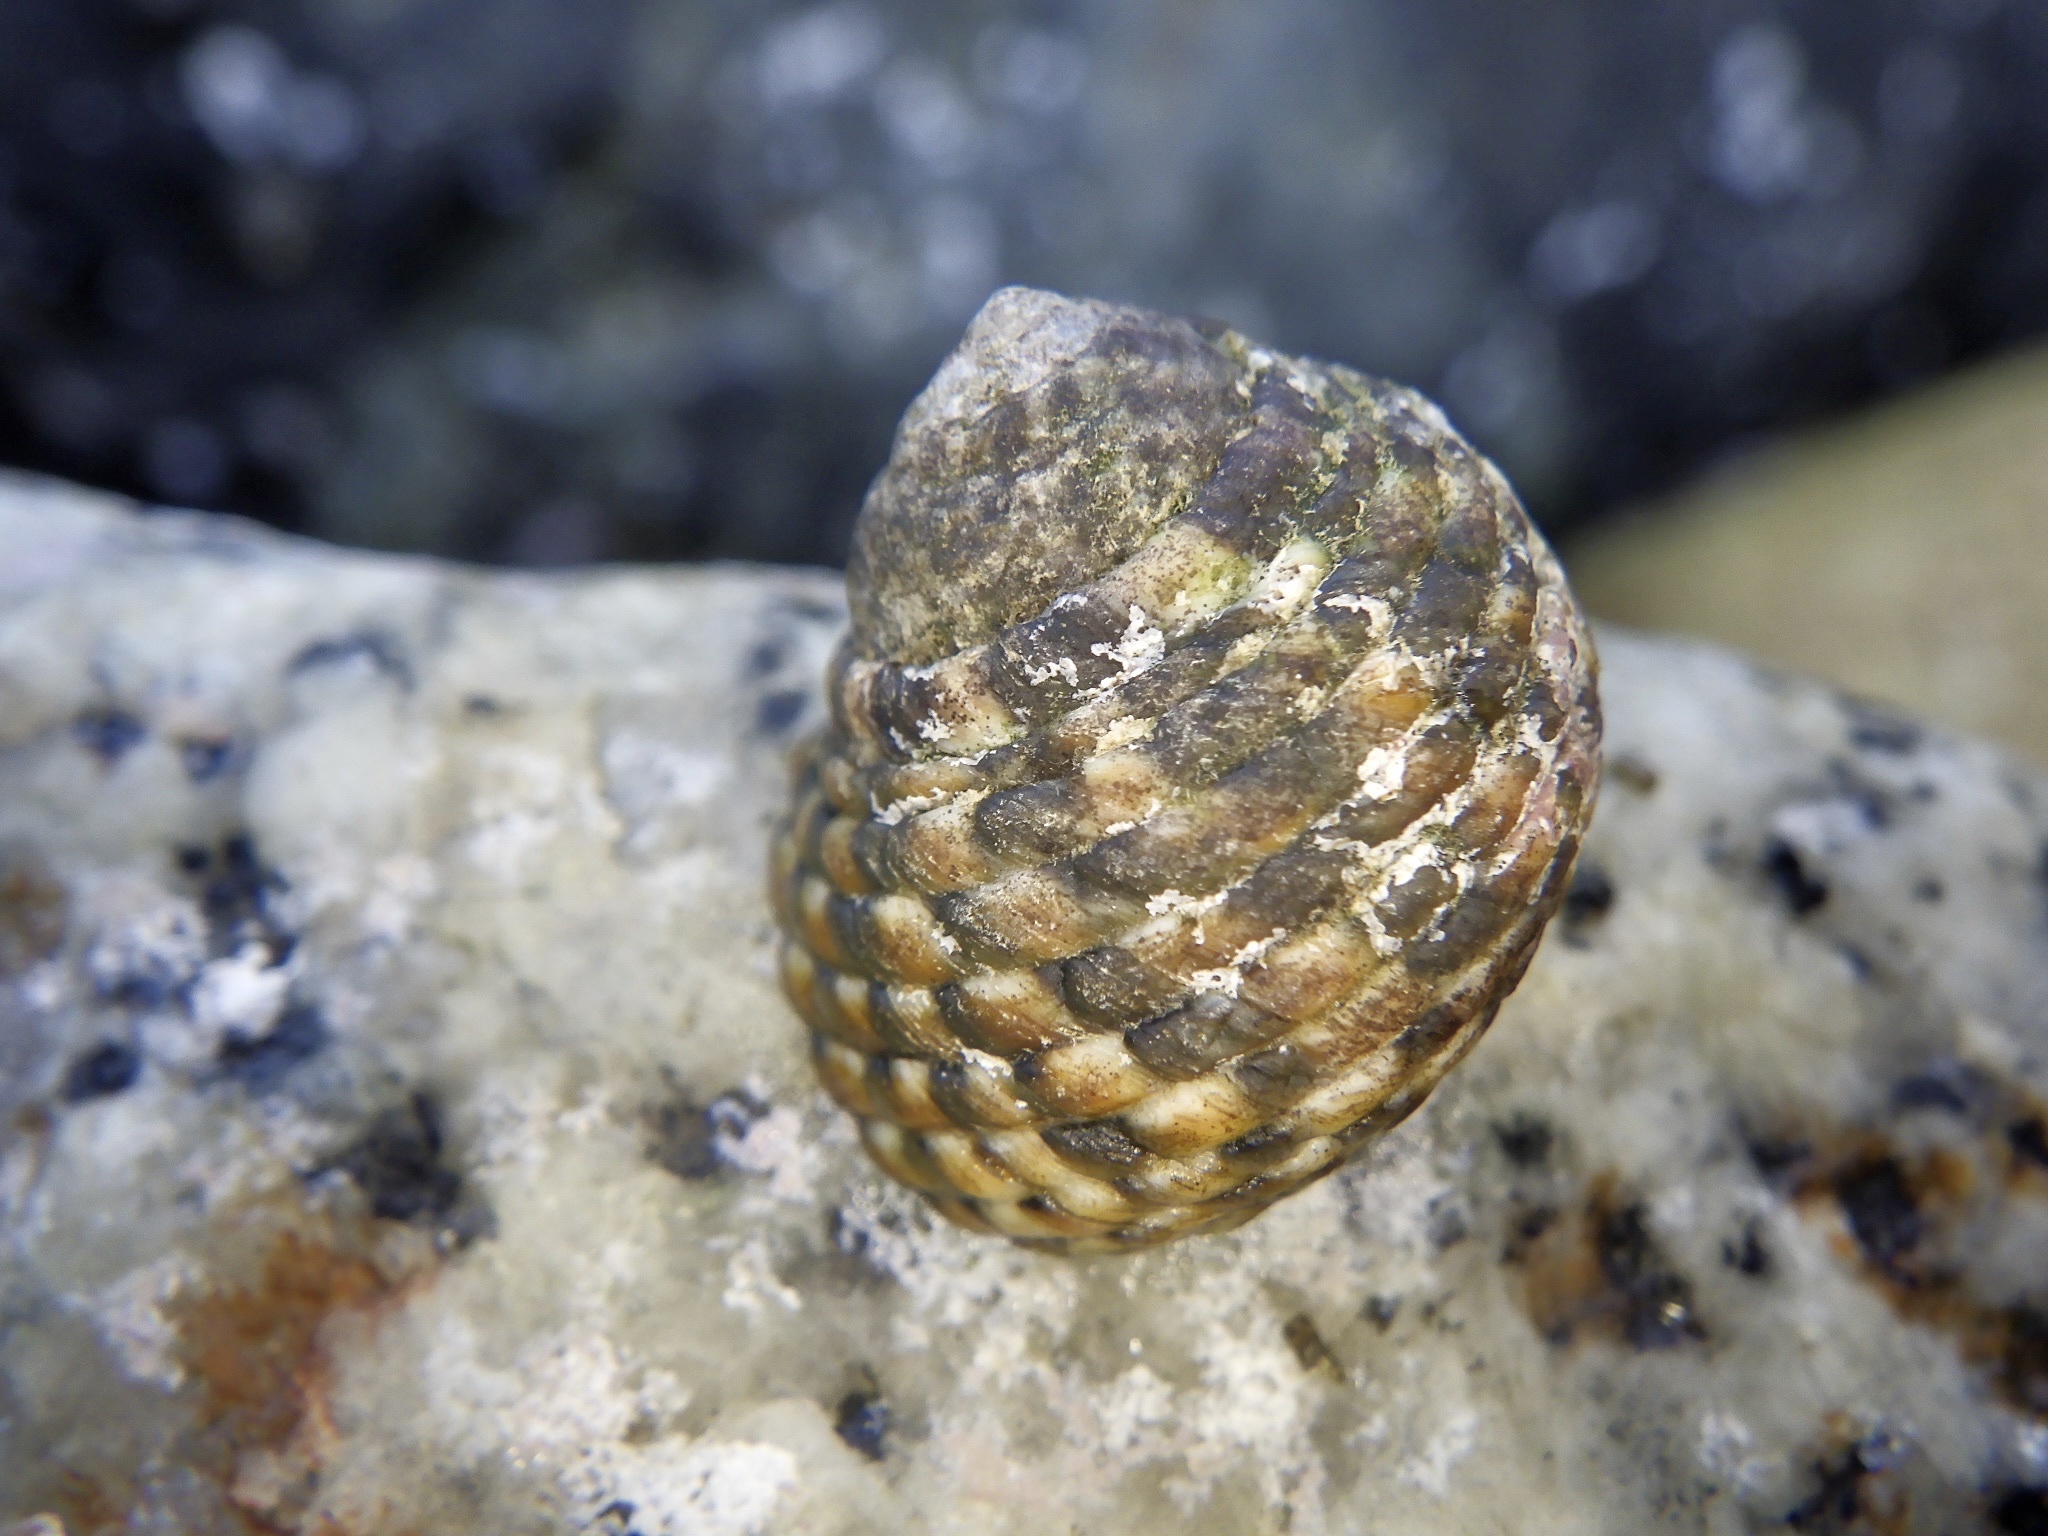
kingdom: Animalia
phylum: Mollusca
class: Gastropoda
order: Trochida
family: Trochidae
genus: Monodonta
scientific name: Monodonta confusa
